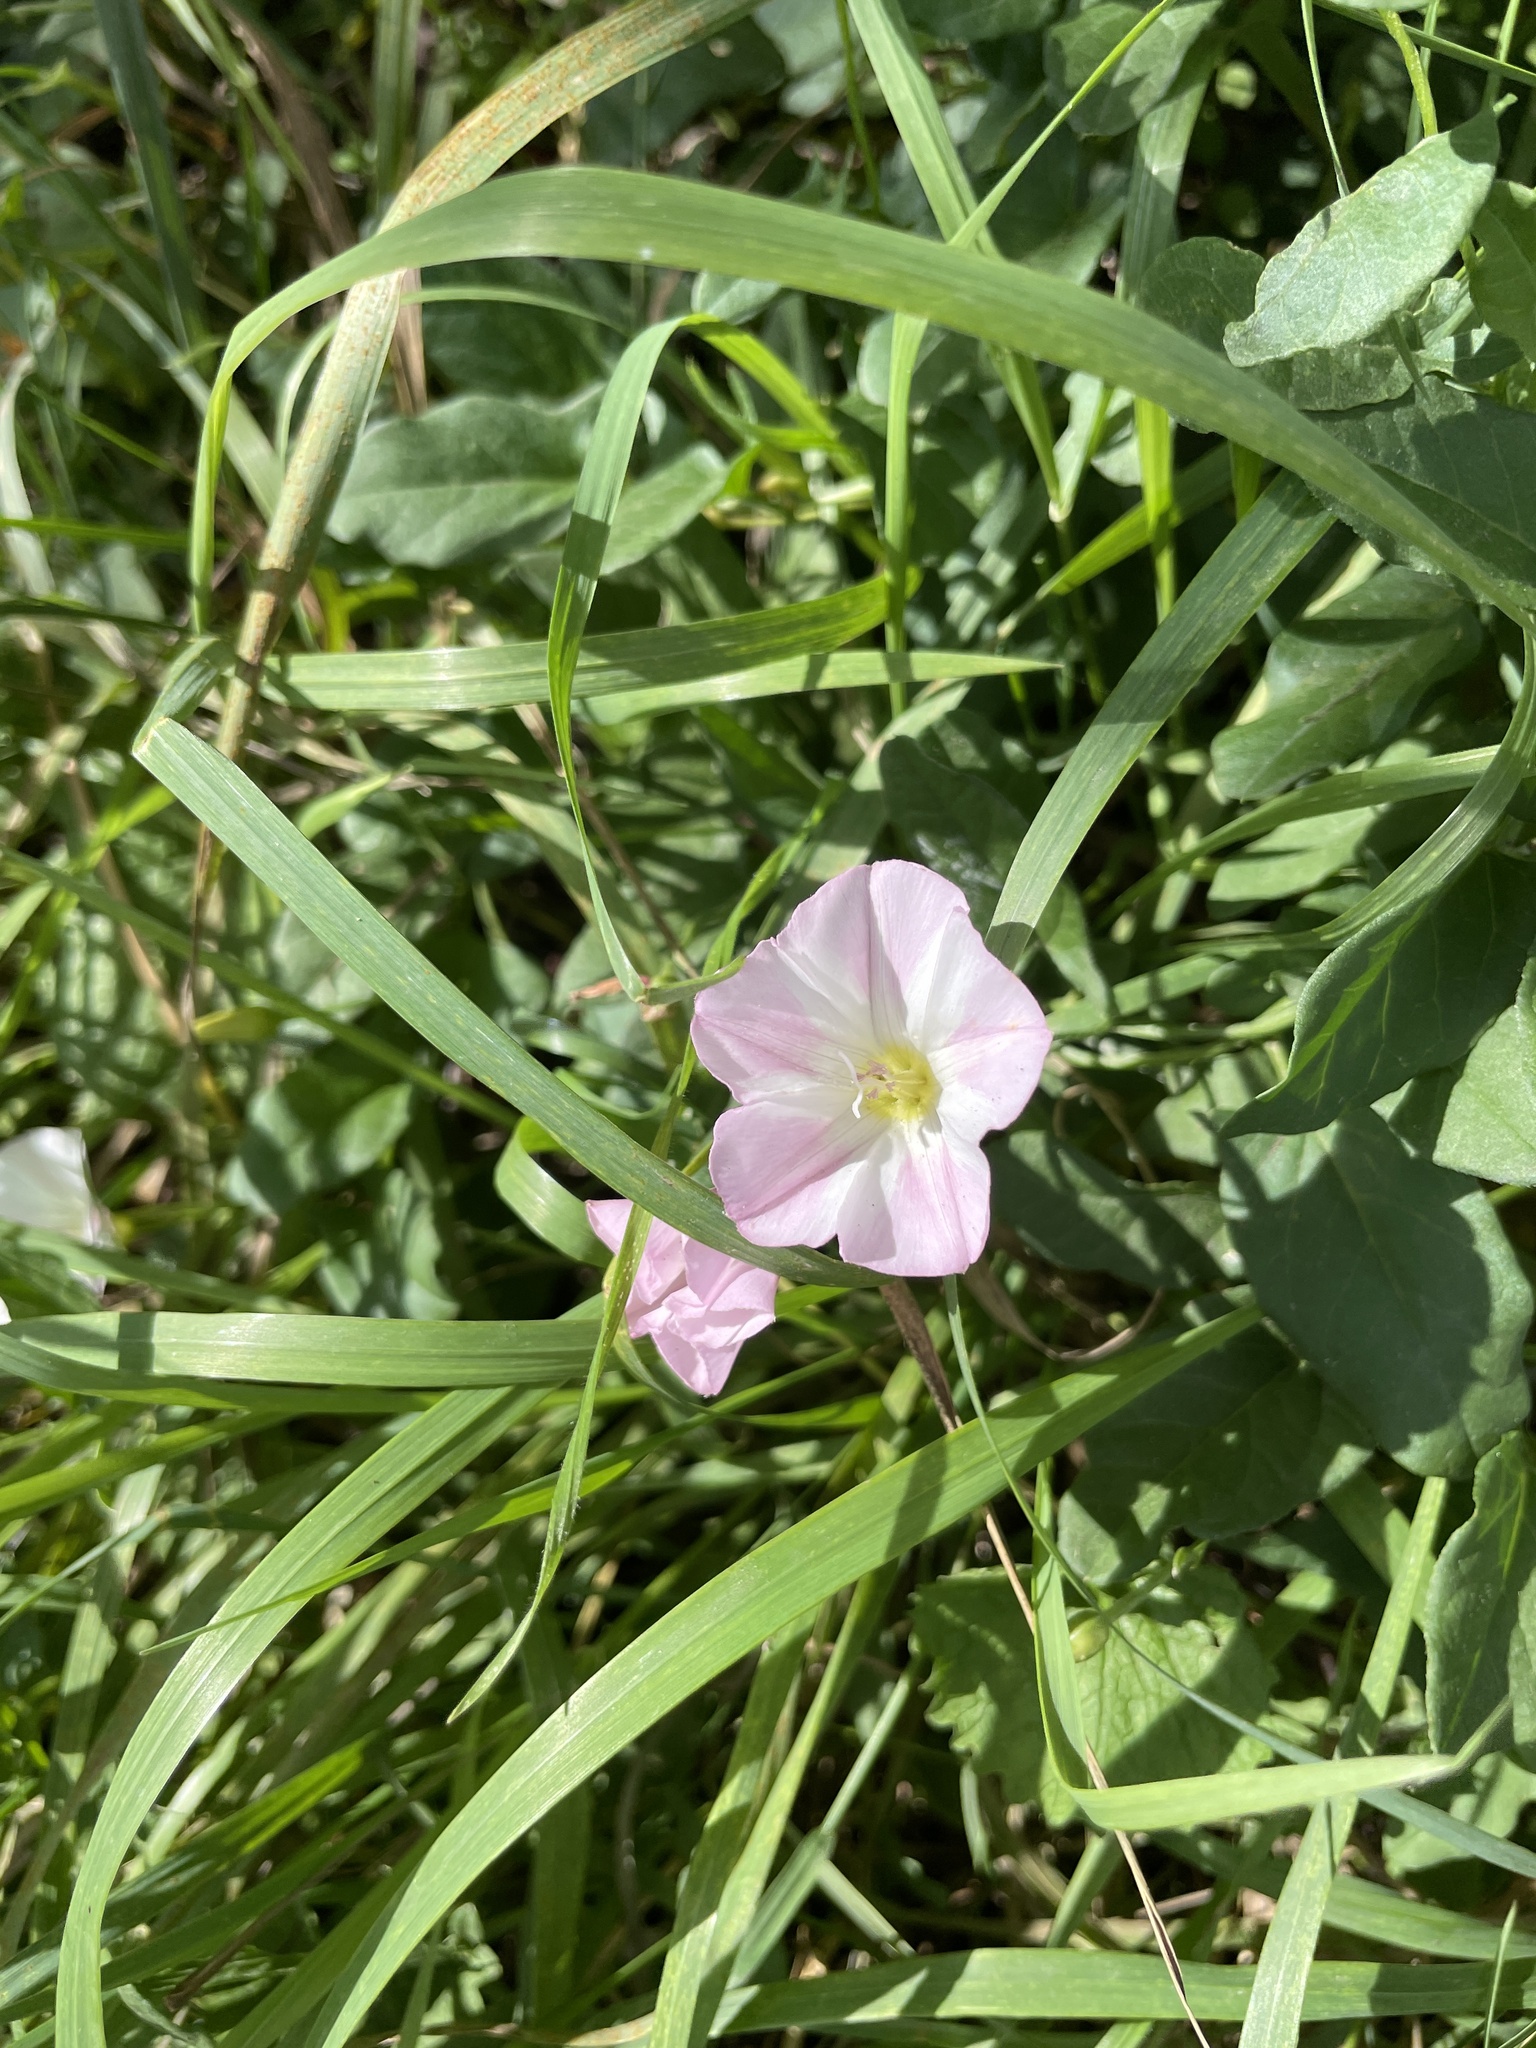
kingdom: Plantae
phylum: Tracheophyta
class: Magnoliopsida
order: Solanales
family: Convolvulaceae
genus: Convolvulus
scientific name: Convolvulus arvensis
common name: Field bindweed
